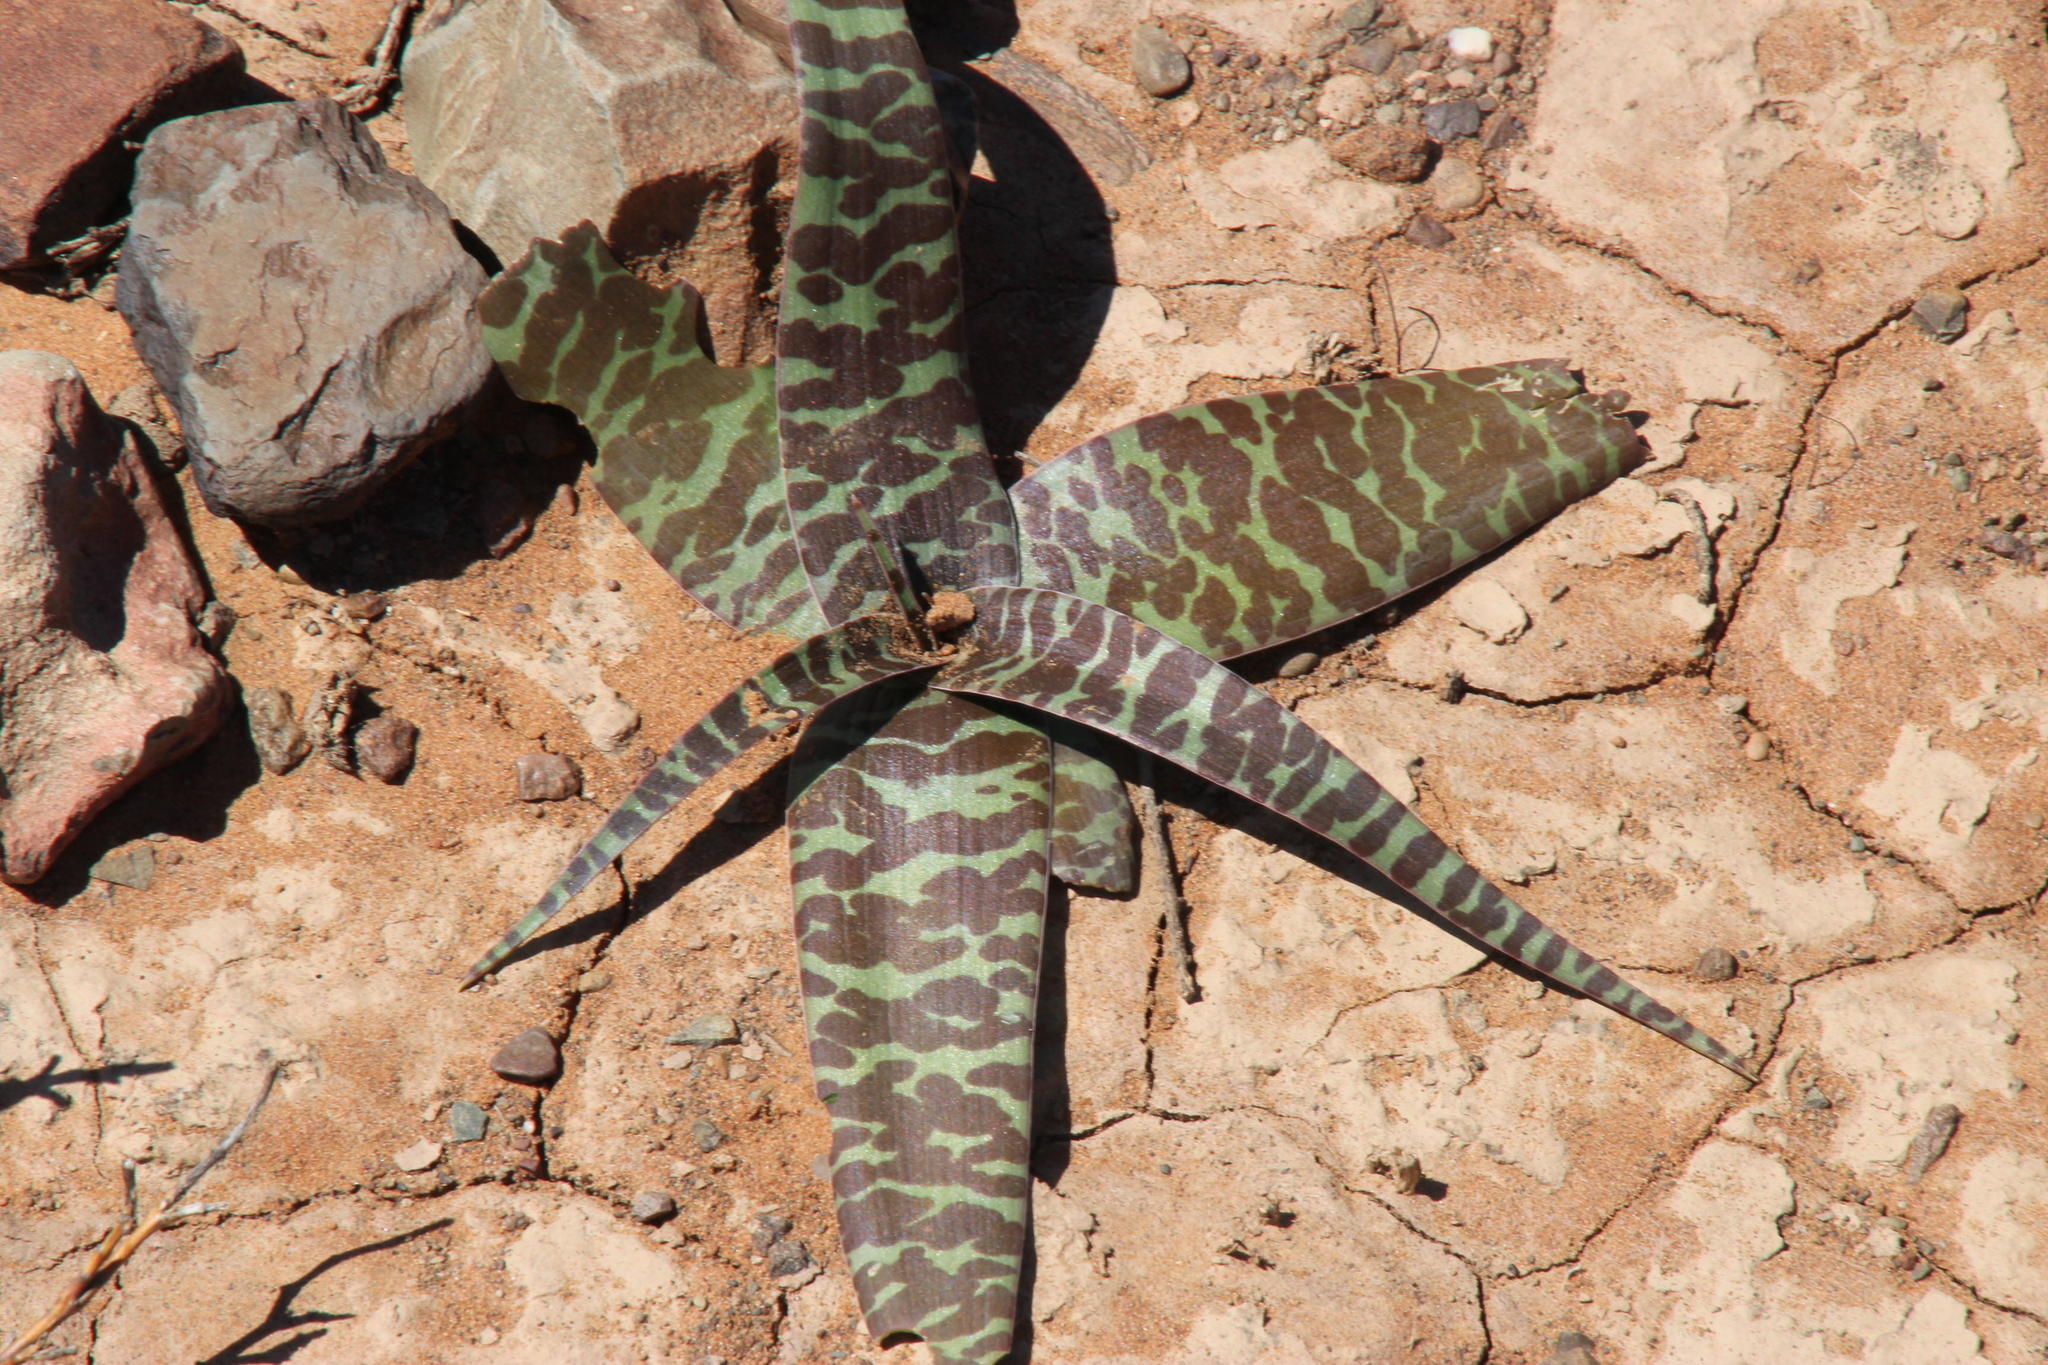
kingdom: Plantae
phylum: Tracheophyta
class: Liliopsida
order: Asparagales
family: Asparagaceae
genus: Ledebouria
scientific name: Ledebouria apertiflora
